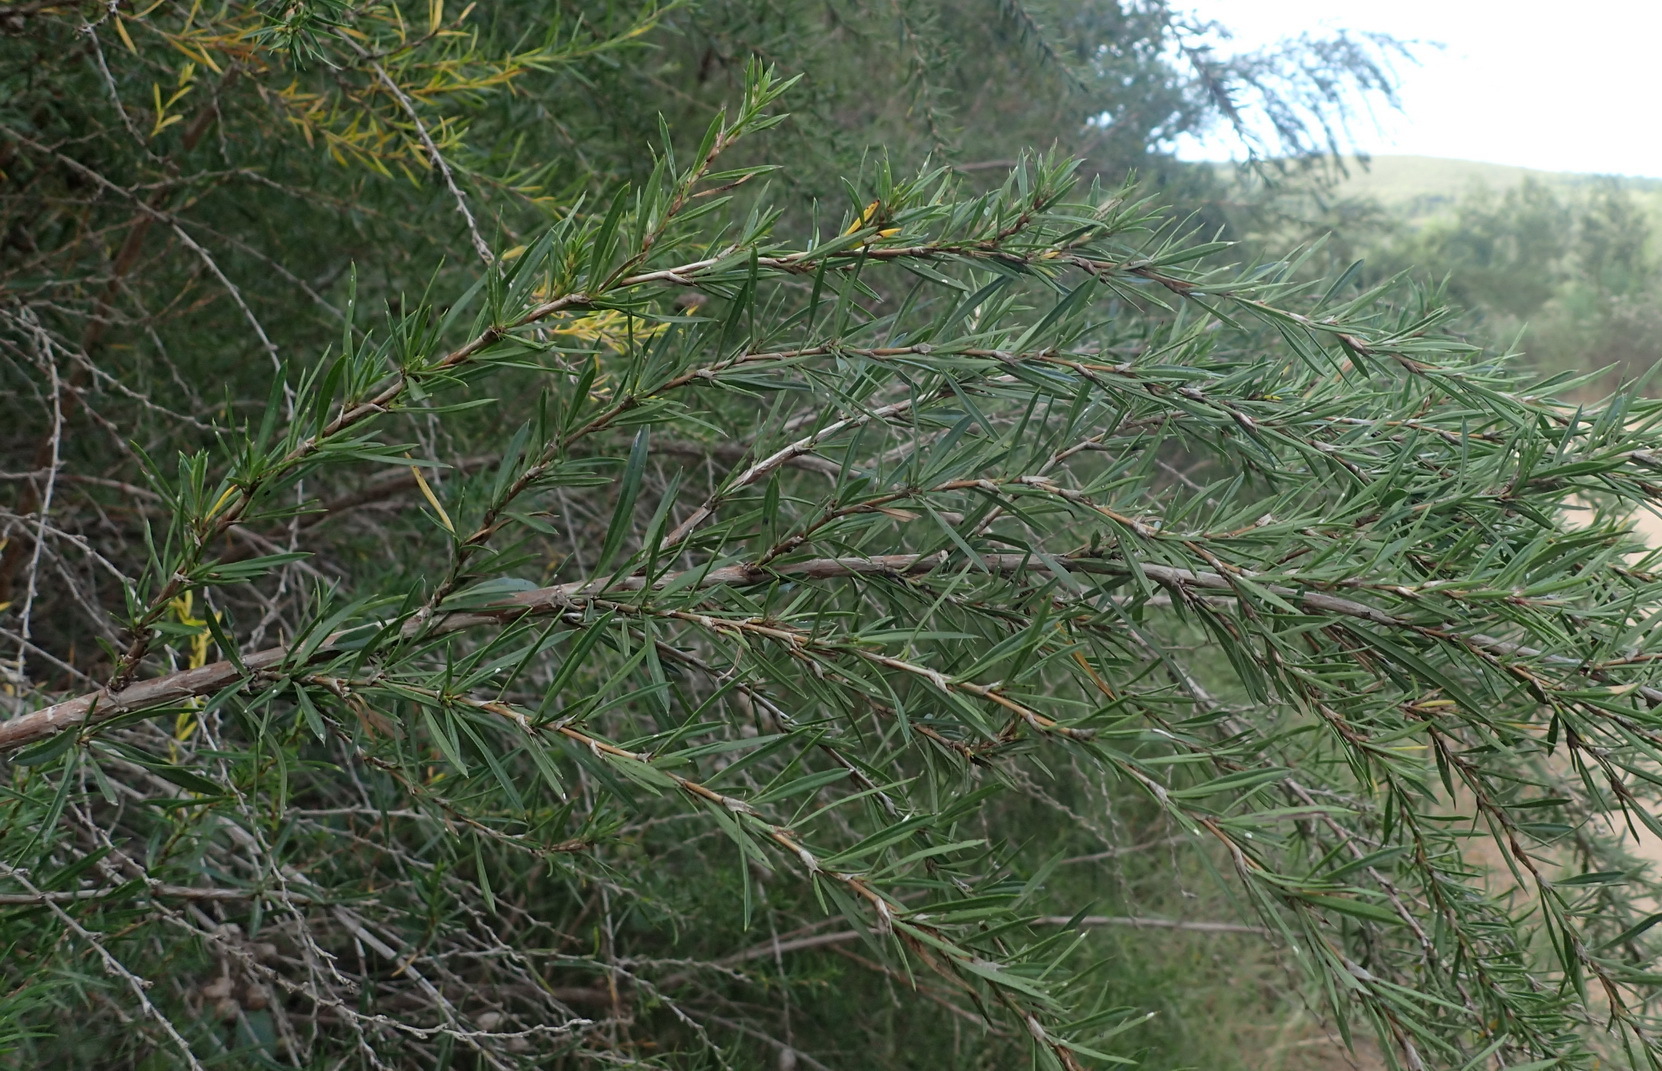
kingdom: Plantae
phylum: Tracheophyta
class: Magnoliopsida
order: Rosales
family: Rosaceae
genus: Cliffortia
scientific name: Cliffortia strobilifera
